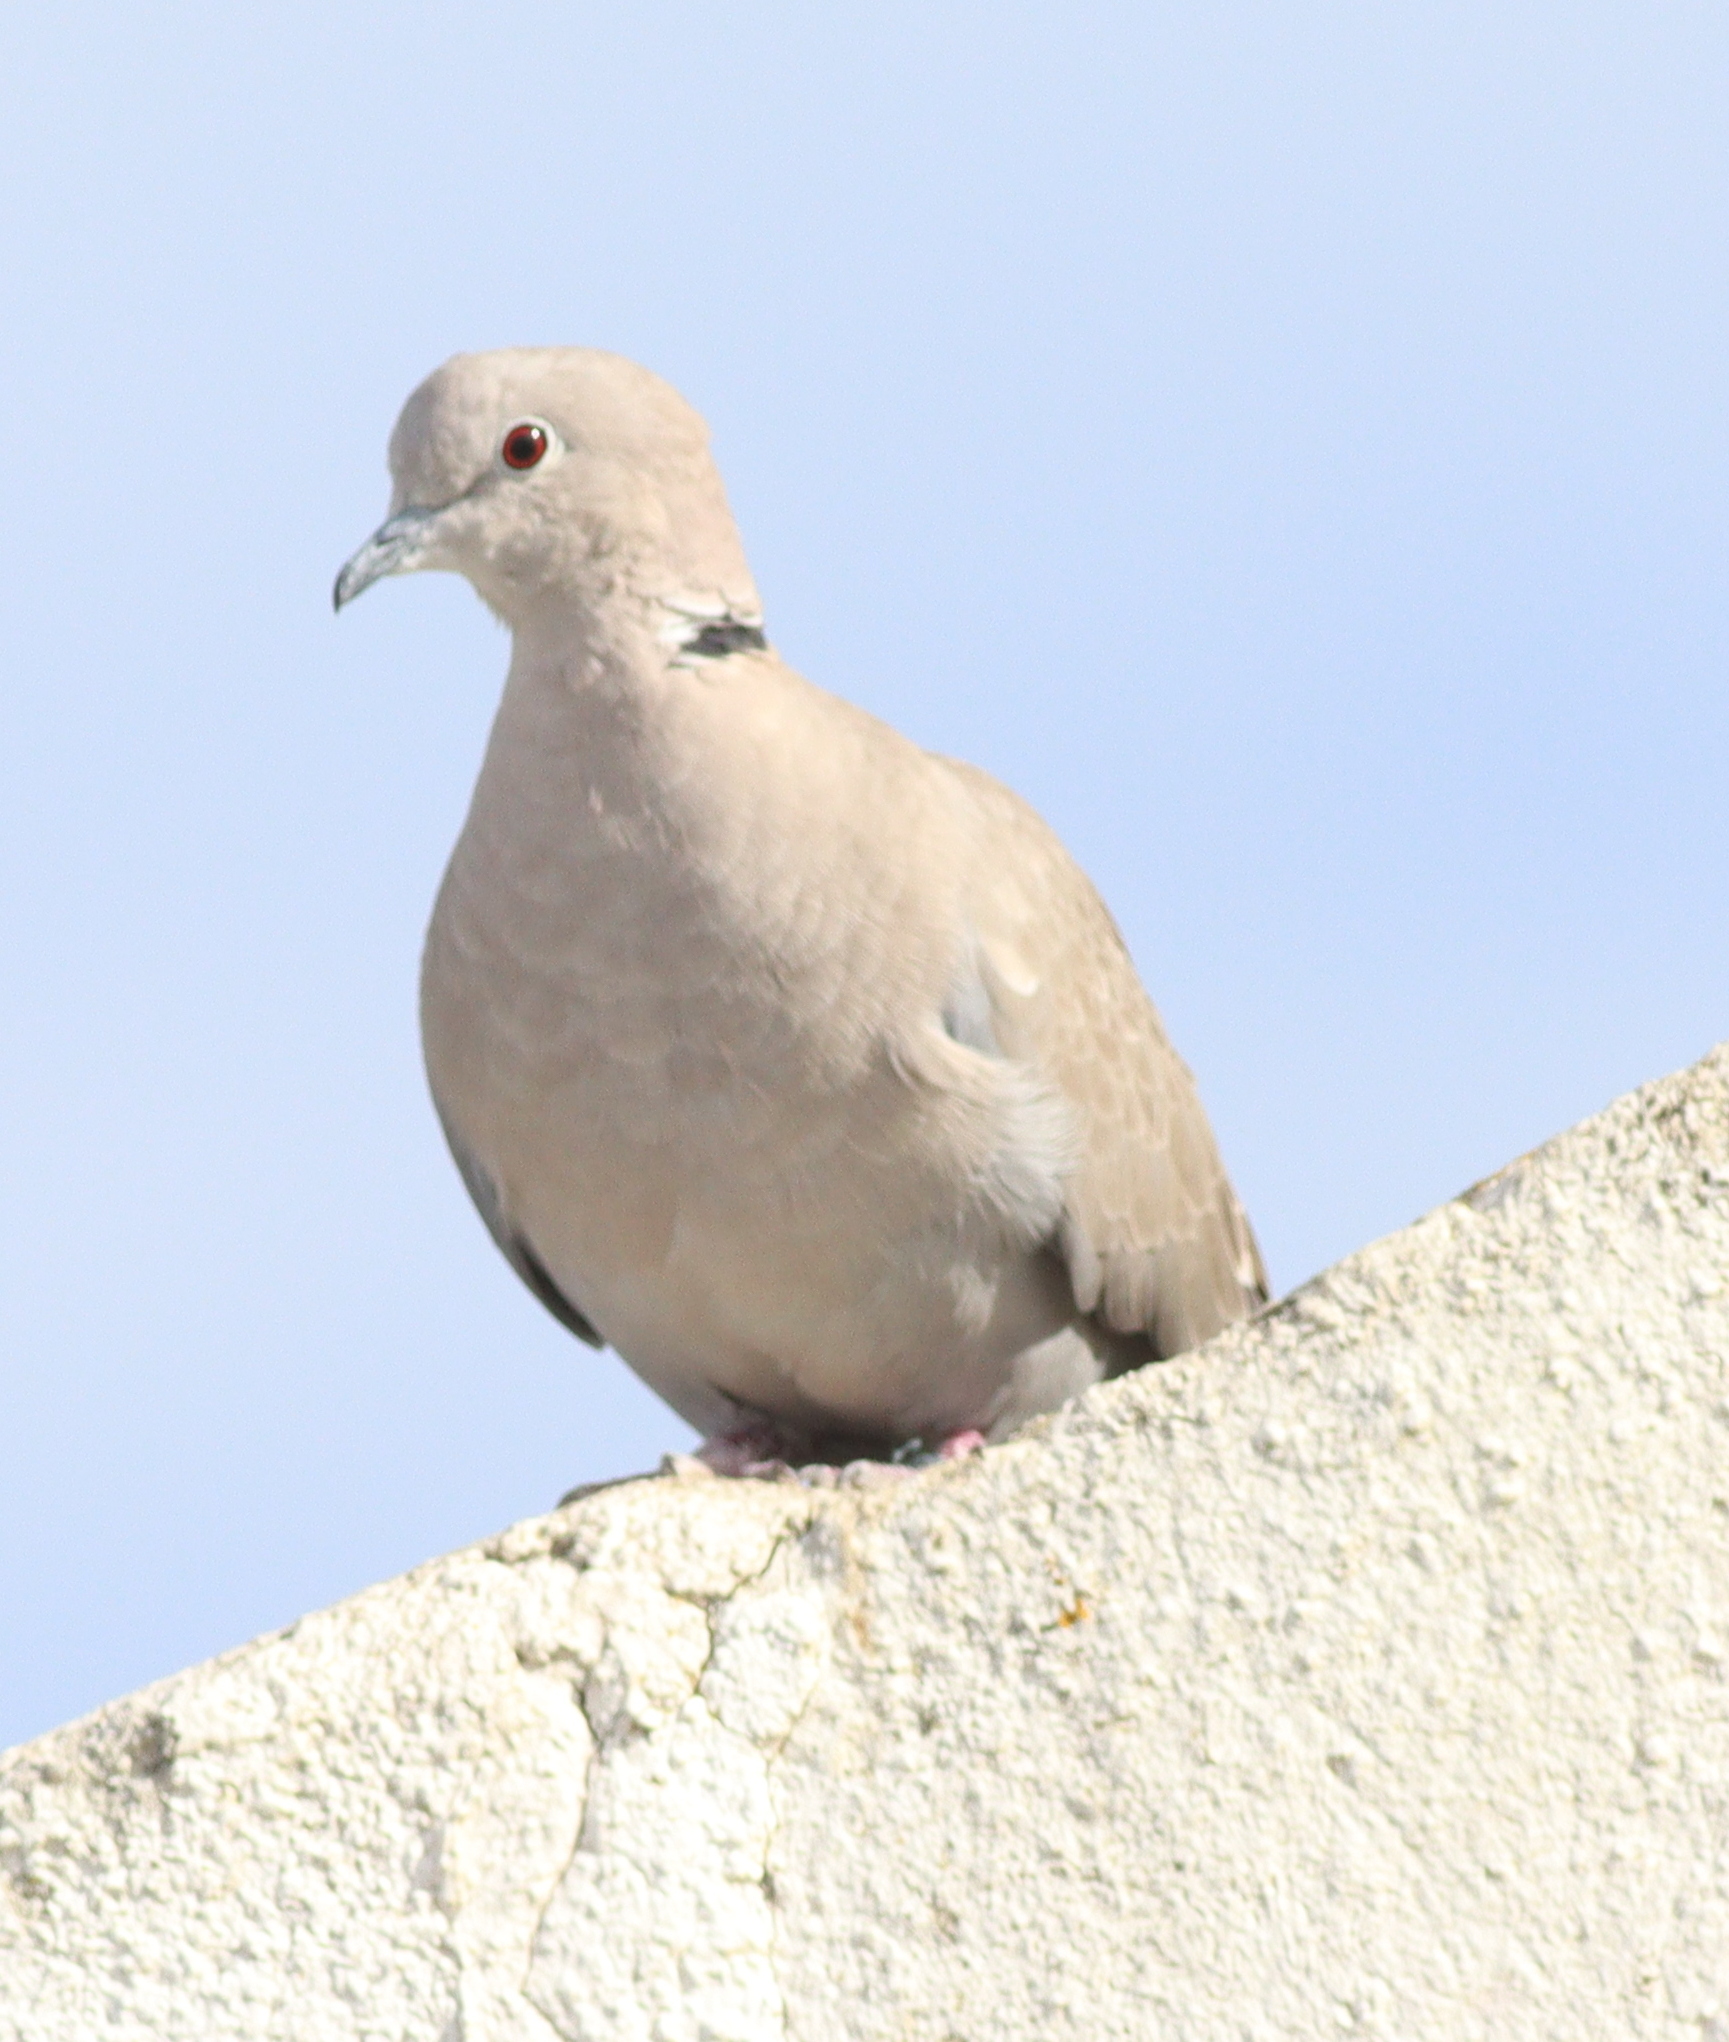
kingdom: Animalia
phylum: Chordata
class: Aves
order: Columbiformes
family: Columbidae
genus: Streptopelia
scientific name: Streptopelia decaocto
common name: Eurasian collared dove
